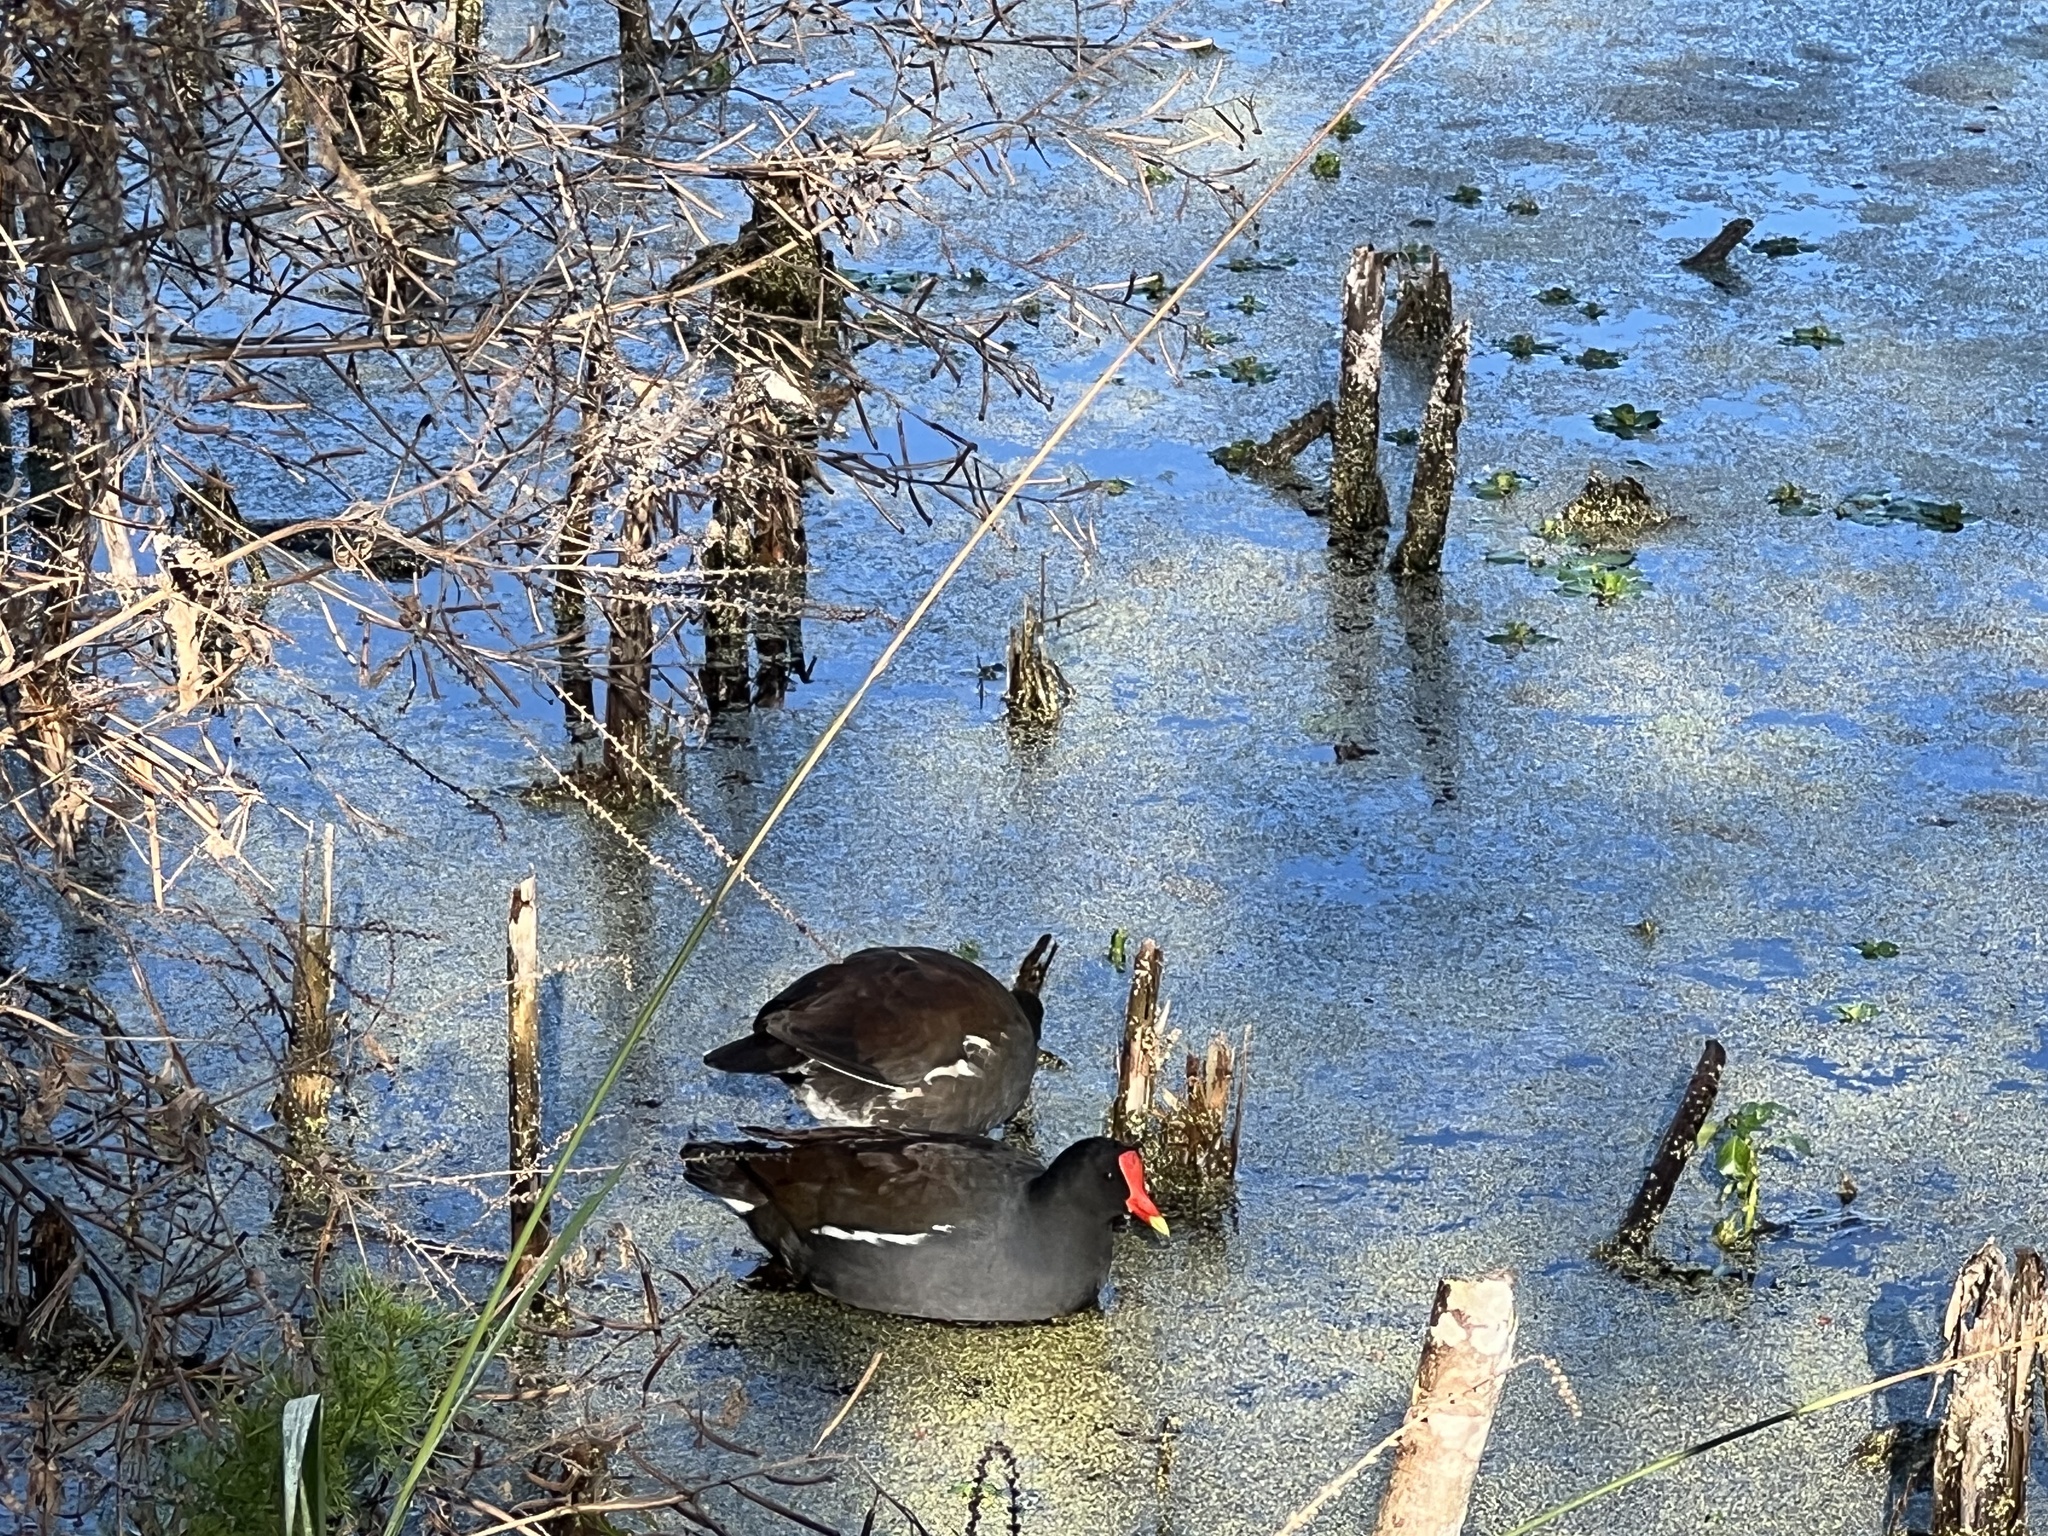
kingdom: Animalia
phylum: Chordata
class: Aves
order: Gruiformes
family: Rallidae
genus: Gallinula
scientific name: Gallinula chloropus
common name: Common moorhen
